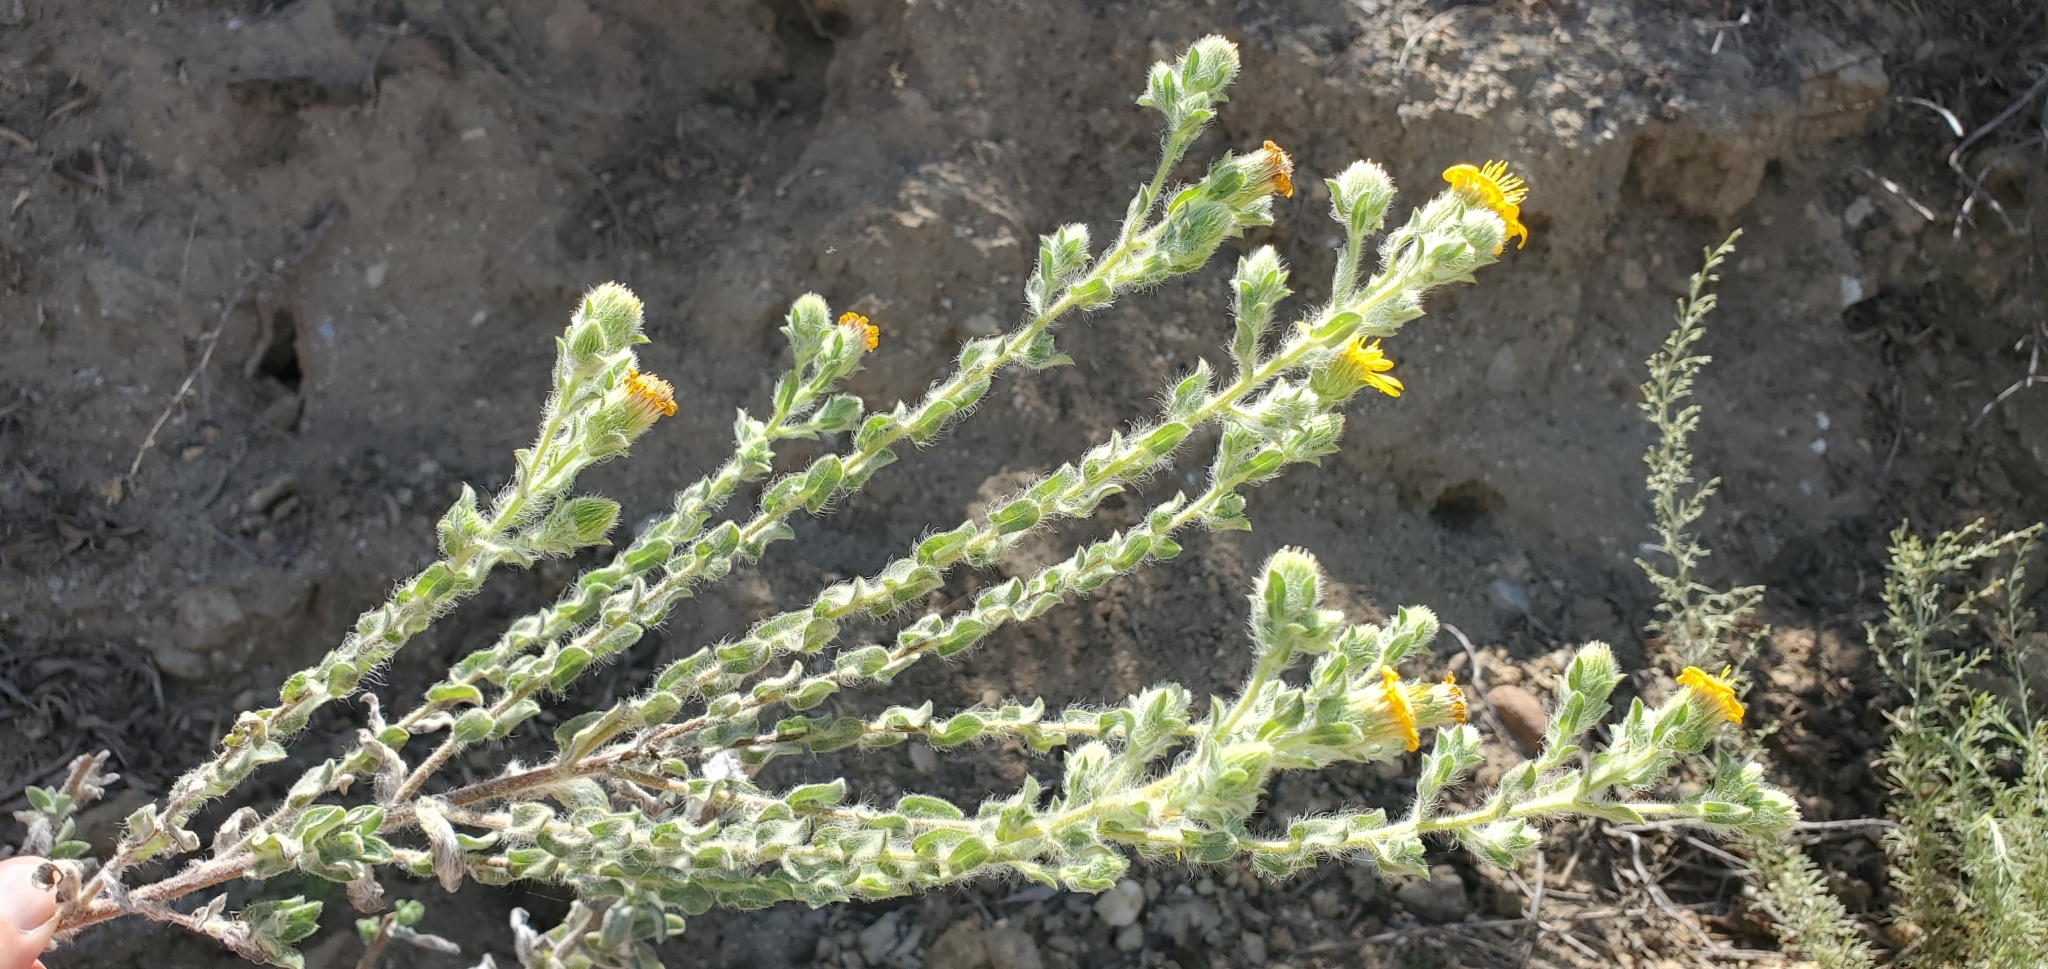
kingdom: Plantae
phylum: Tracheophyta
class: Magnoliopsida
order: Asterales
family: Asteraceae
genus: Heterotheca
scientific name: Heterotheca sessiliflora
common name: Sessile-flower golden-aster
